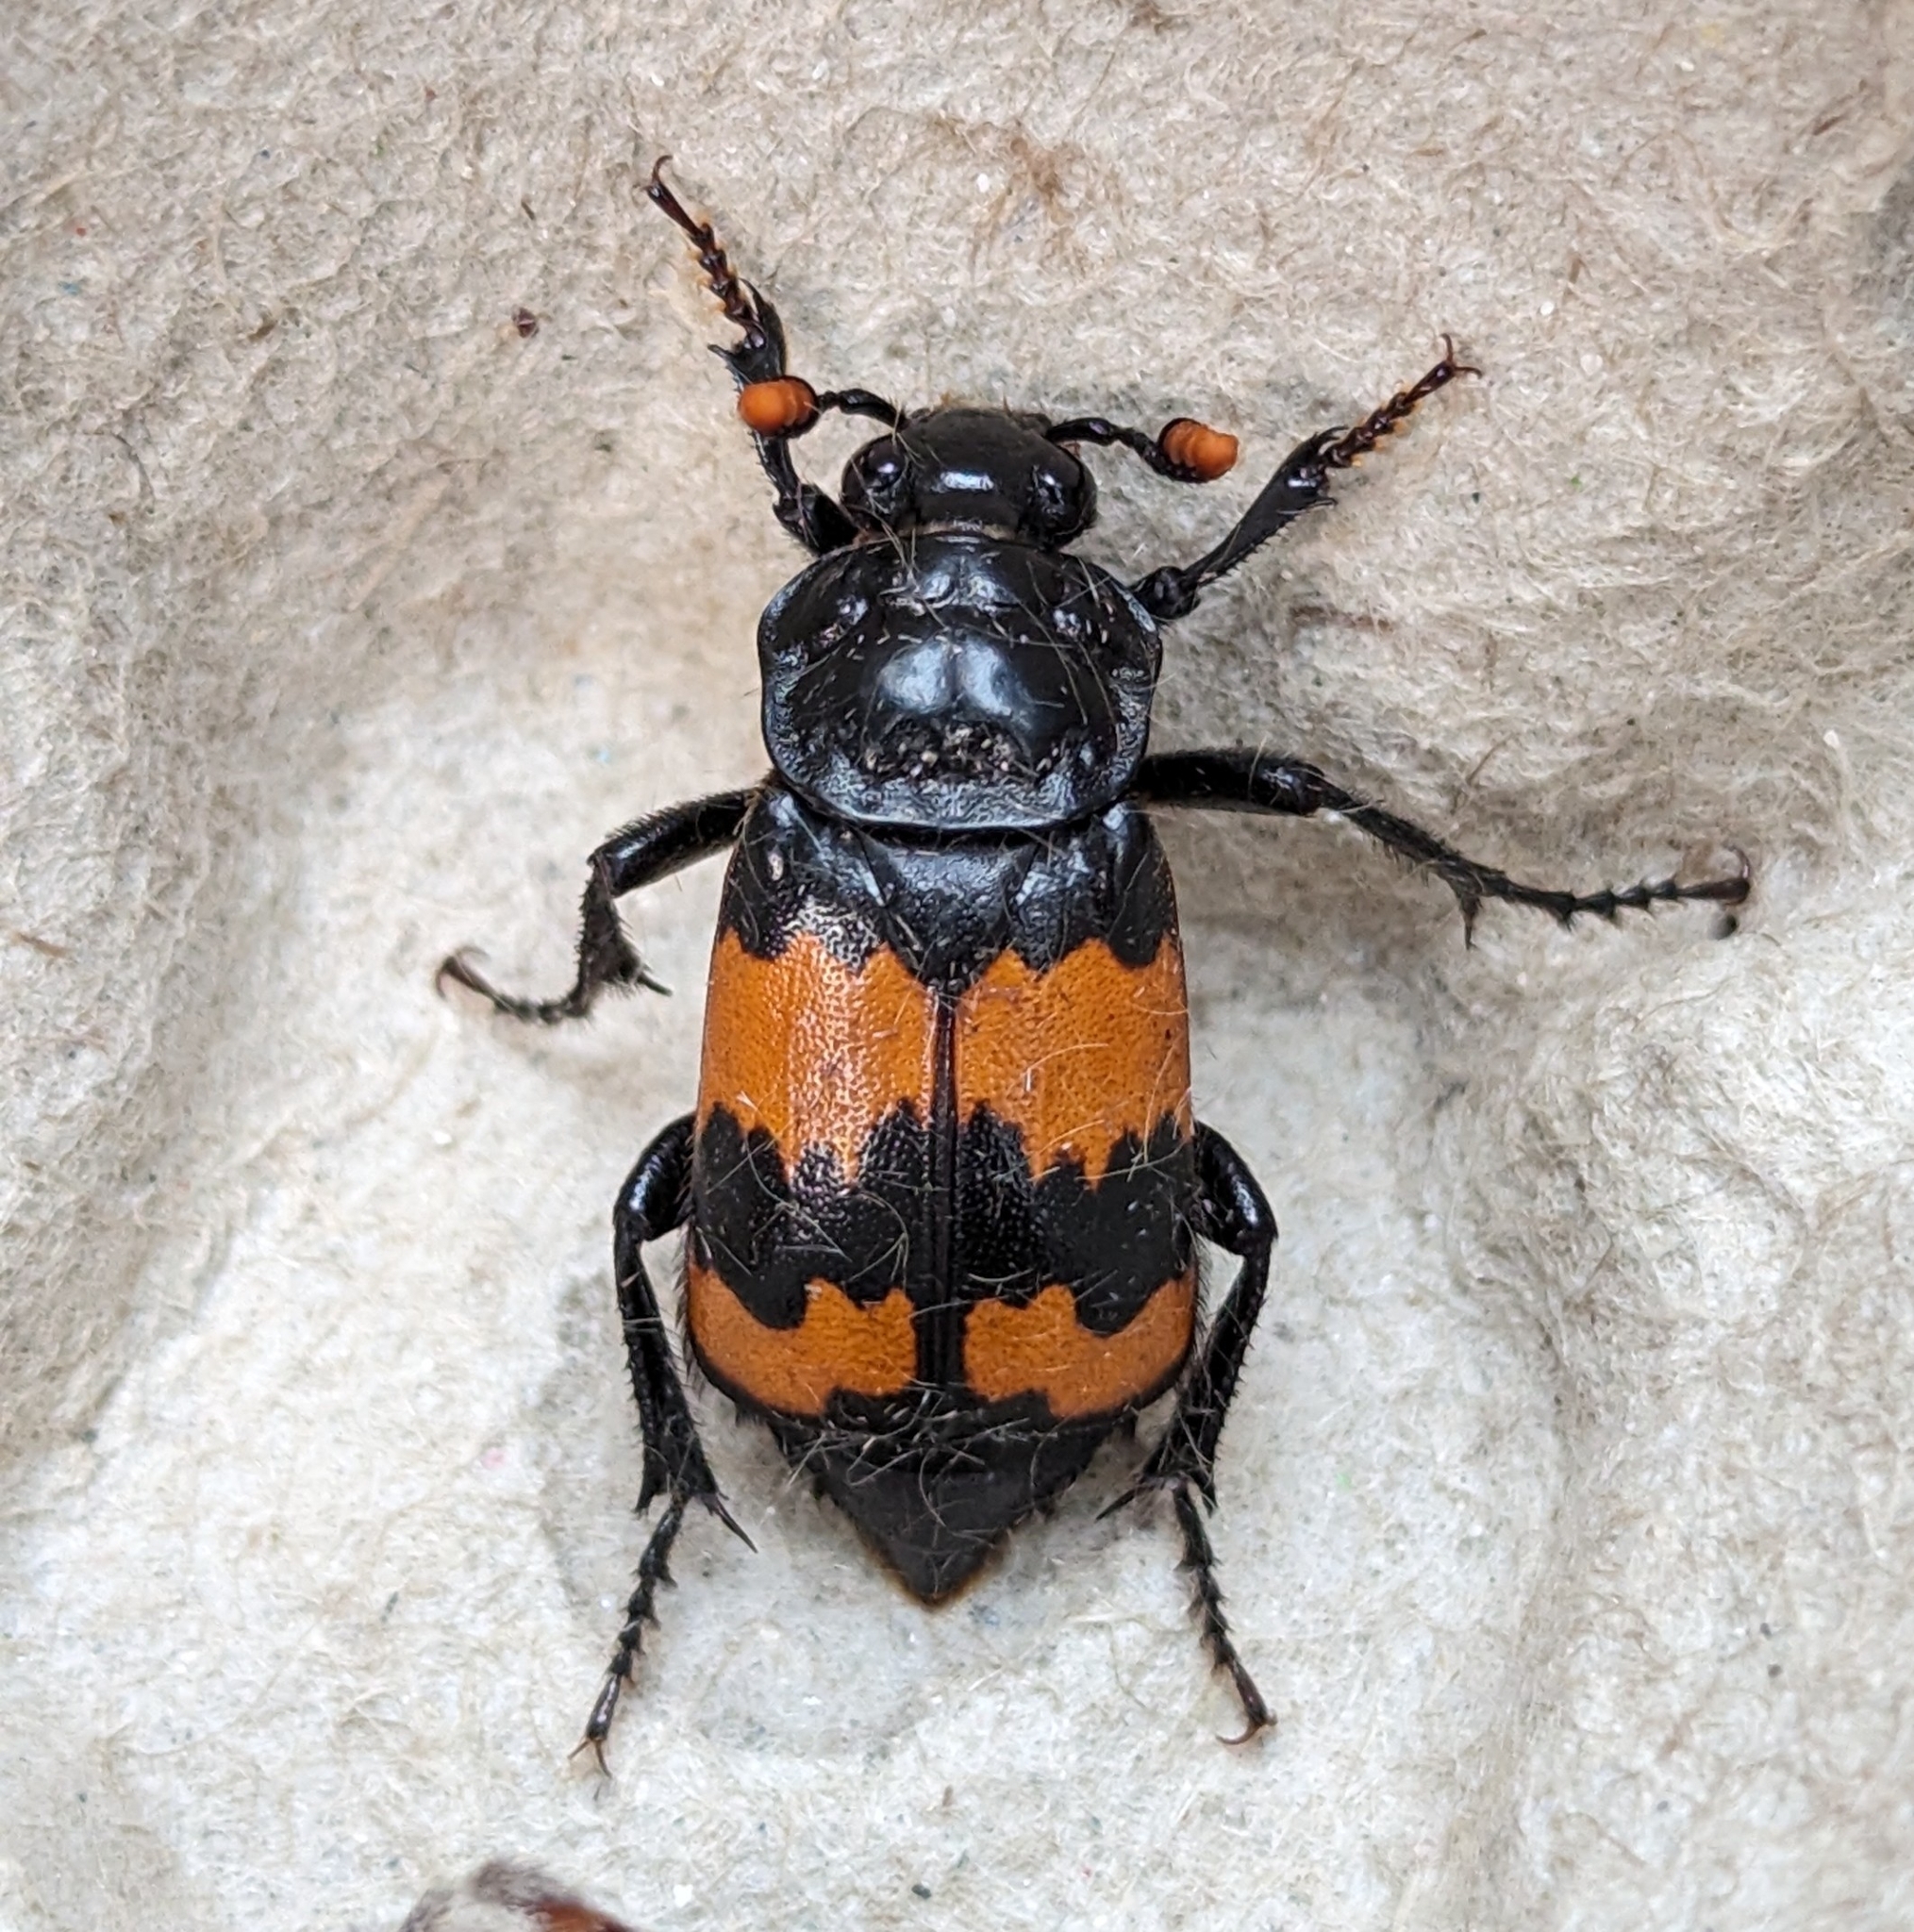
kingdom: Animalia
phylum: Arthropoda
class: Insecta
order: Coleoptera
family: Staphylinidae
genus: Nicrophorus
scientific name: Nicrophorus investigator
